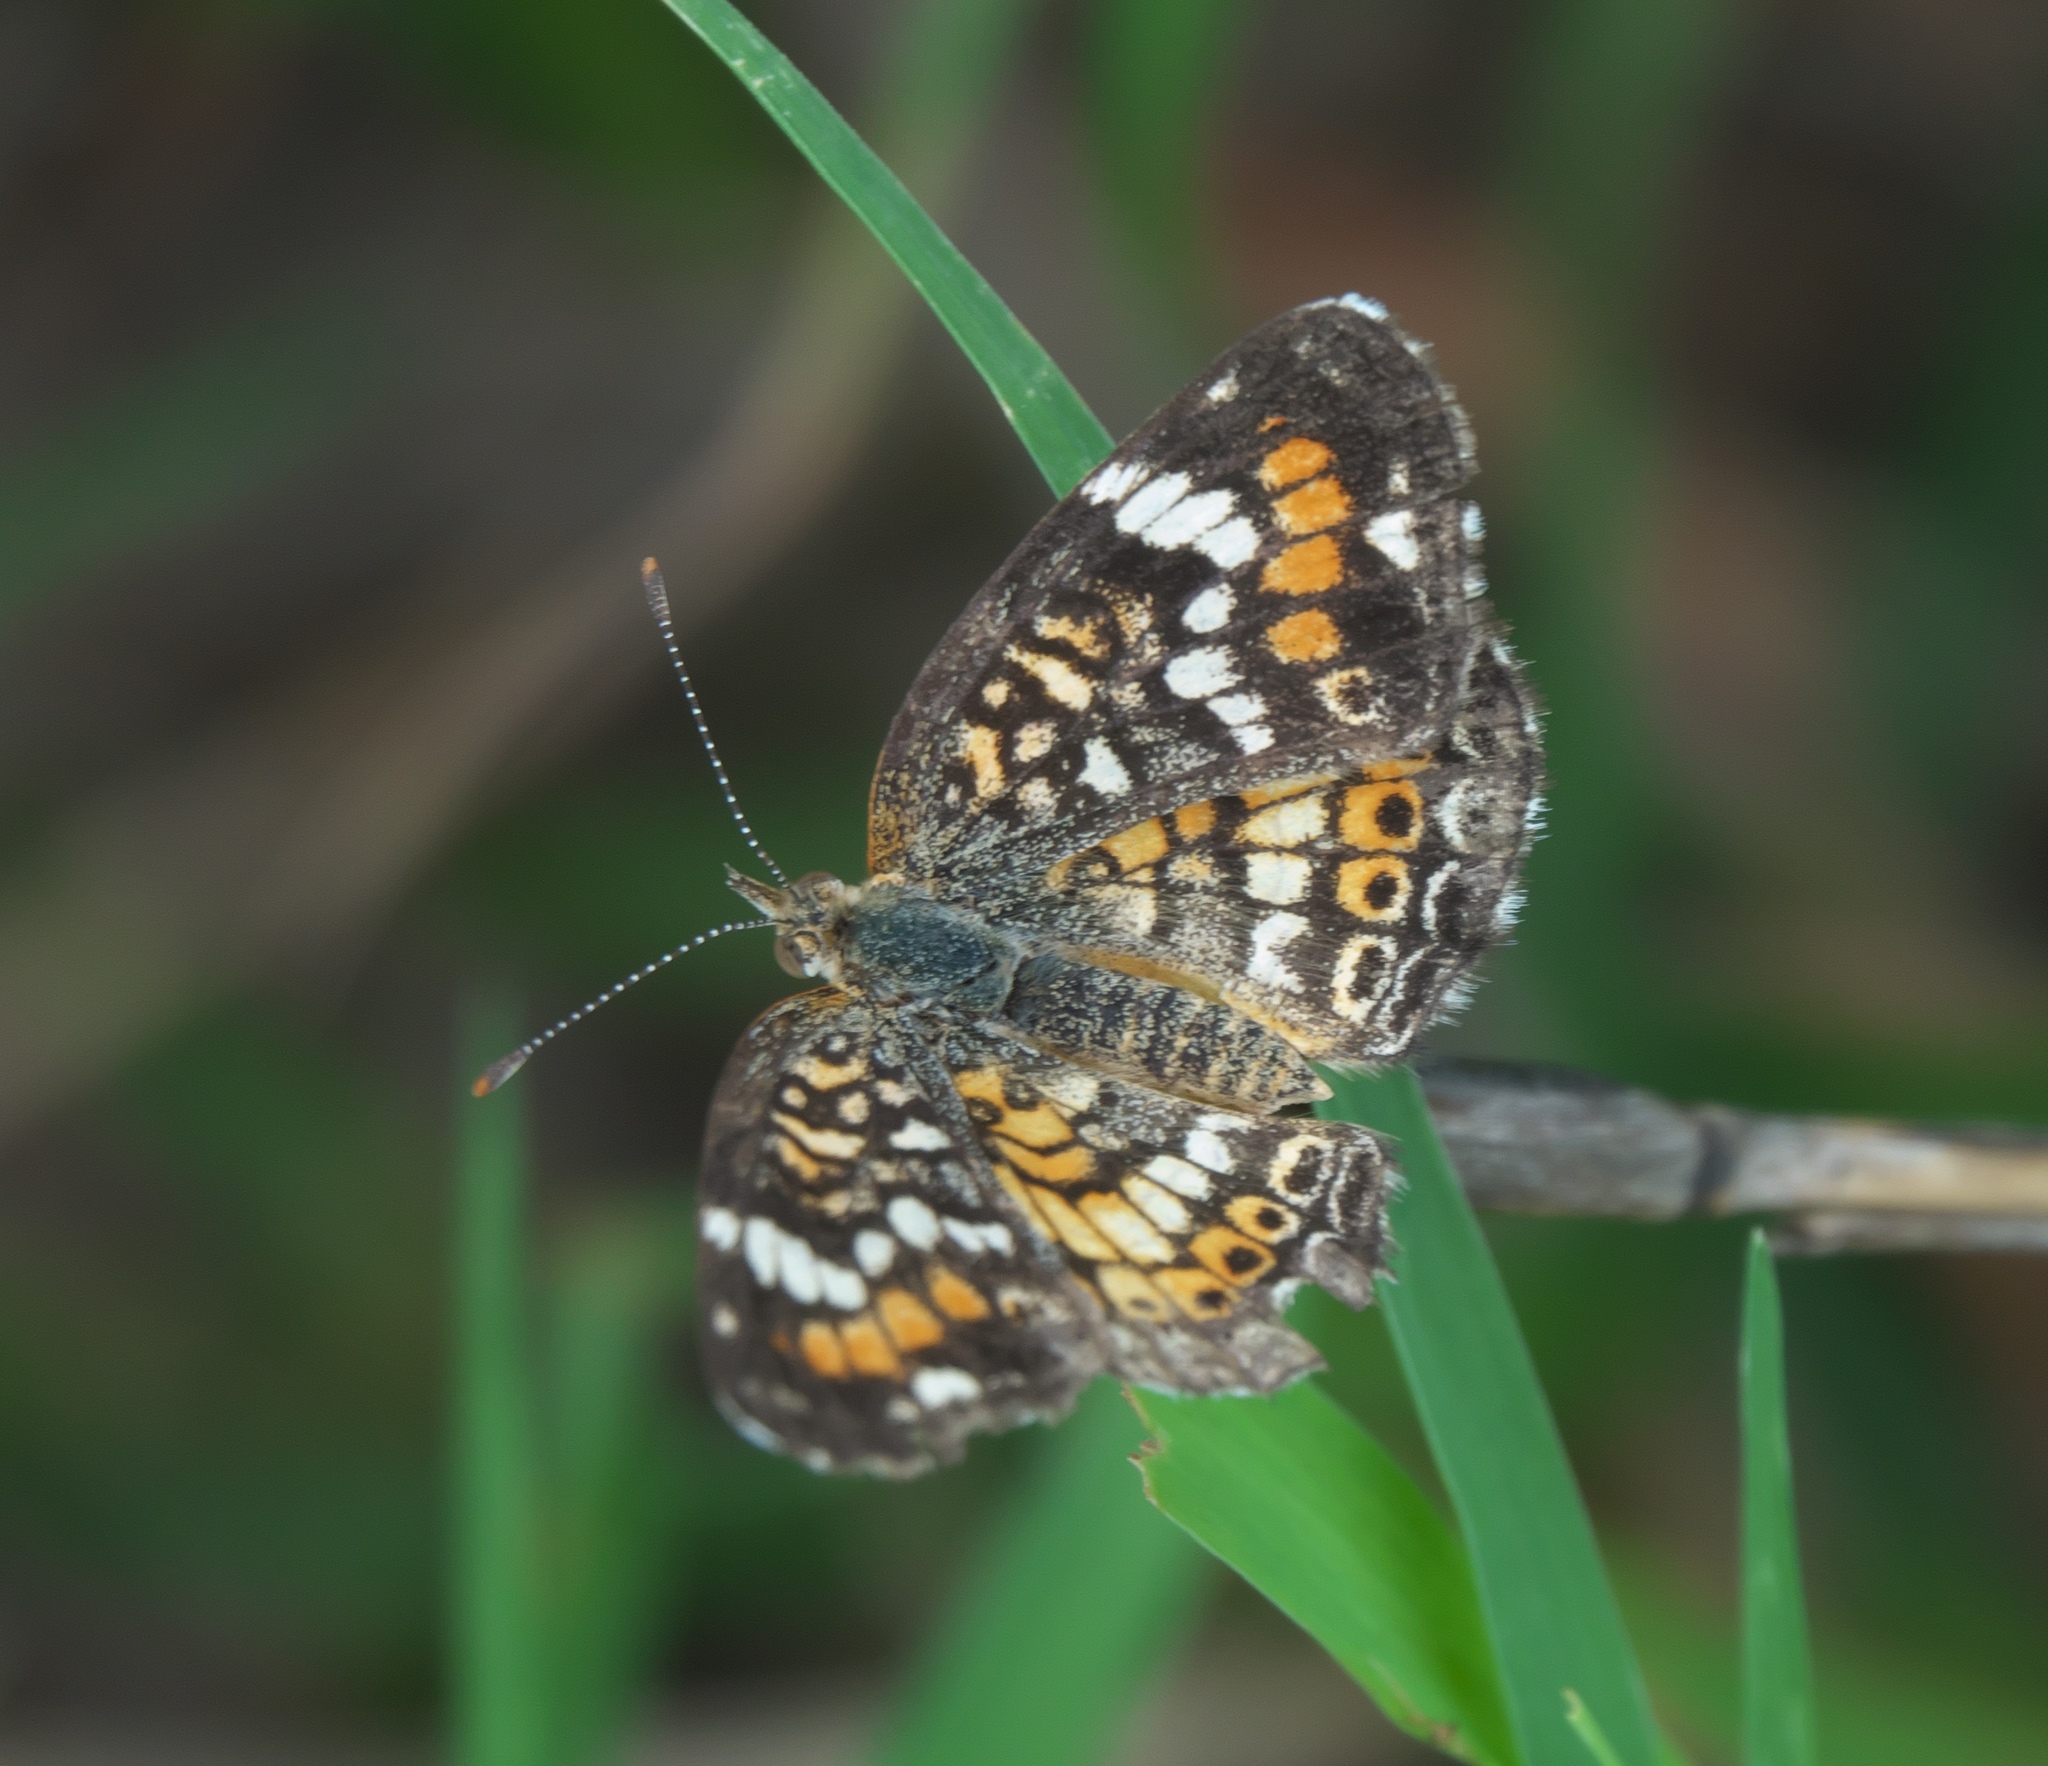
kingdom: Animalia
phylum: Arthropoda
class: Insecta
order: Lepidoptera
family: Nymphalidae
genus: Phyciodes
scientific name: Phyciodes phaon
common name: Phaon crescent
